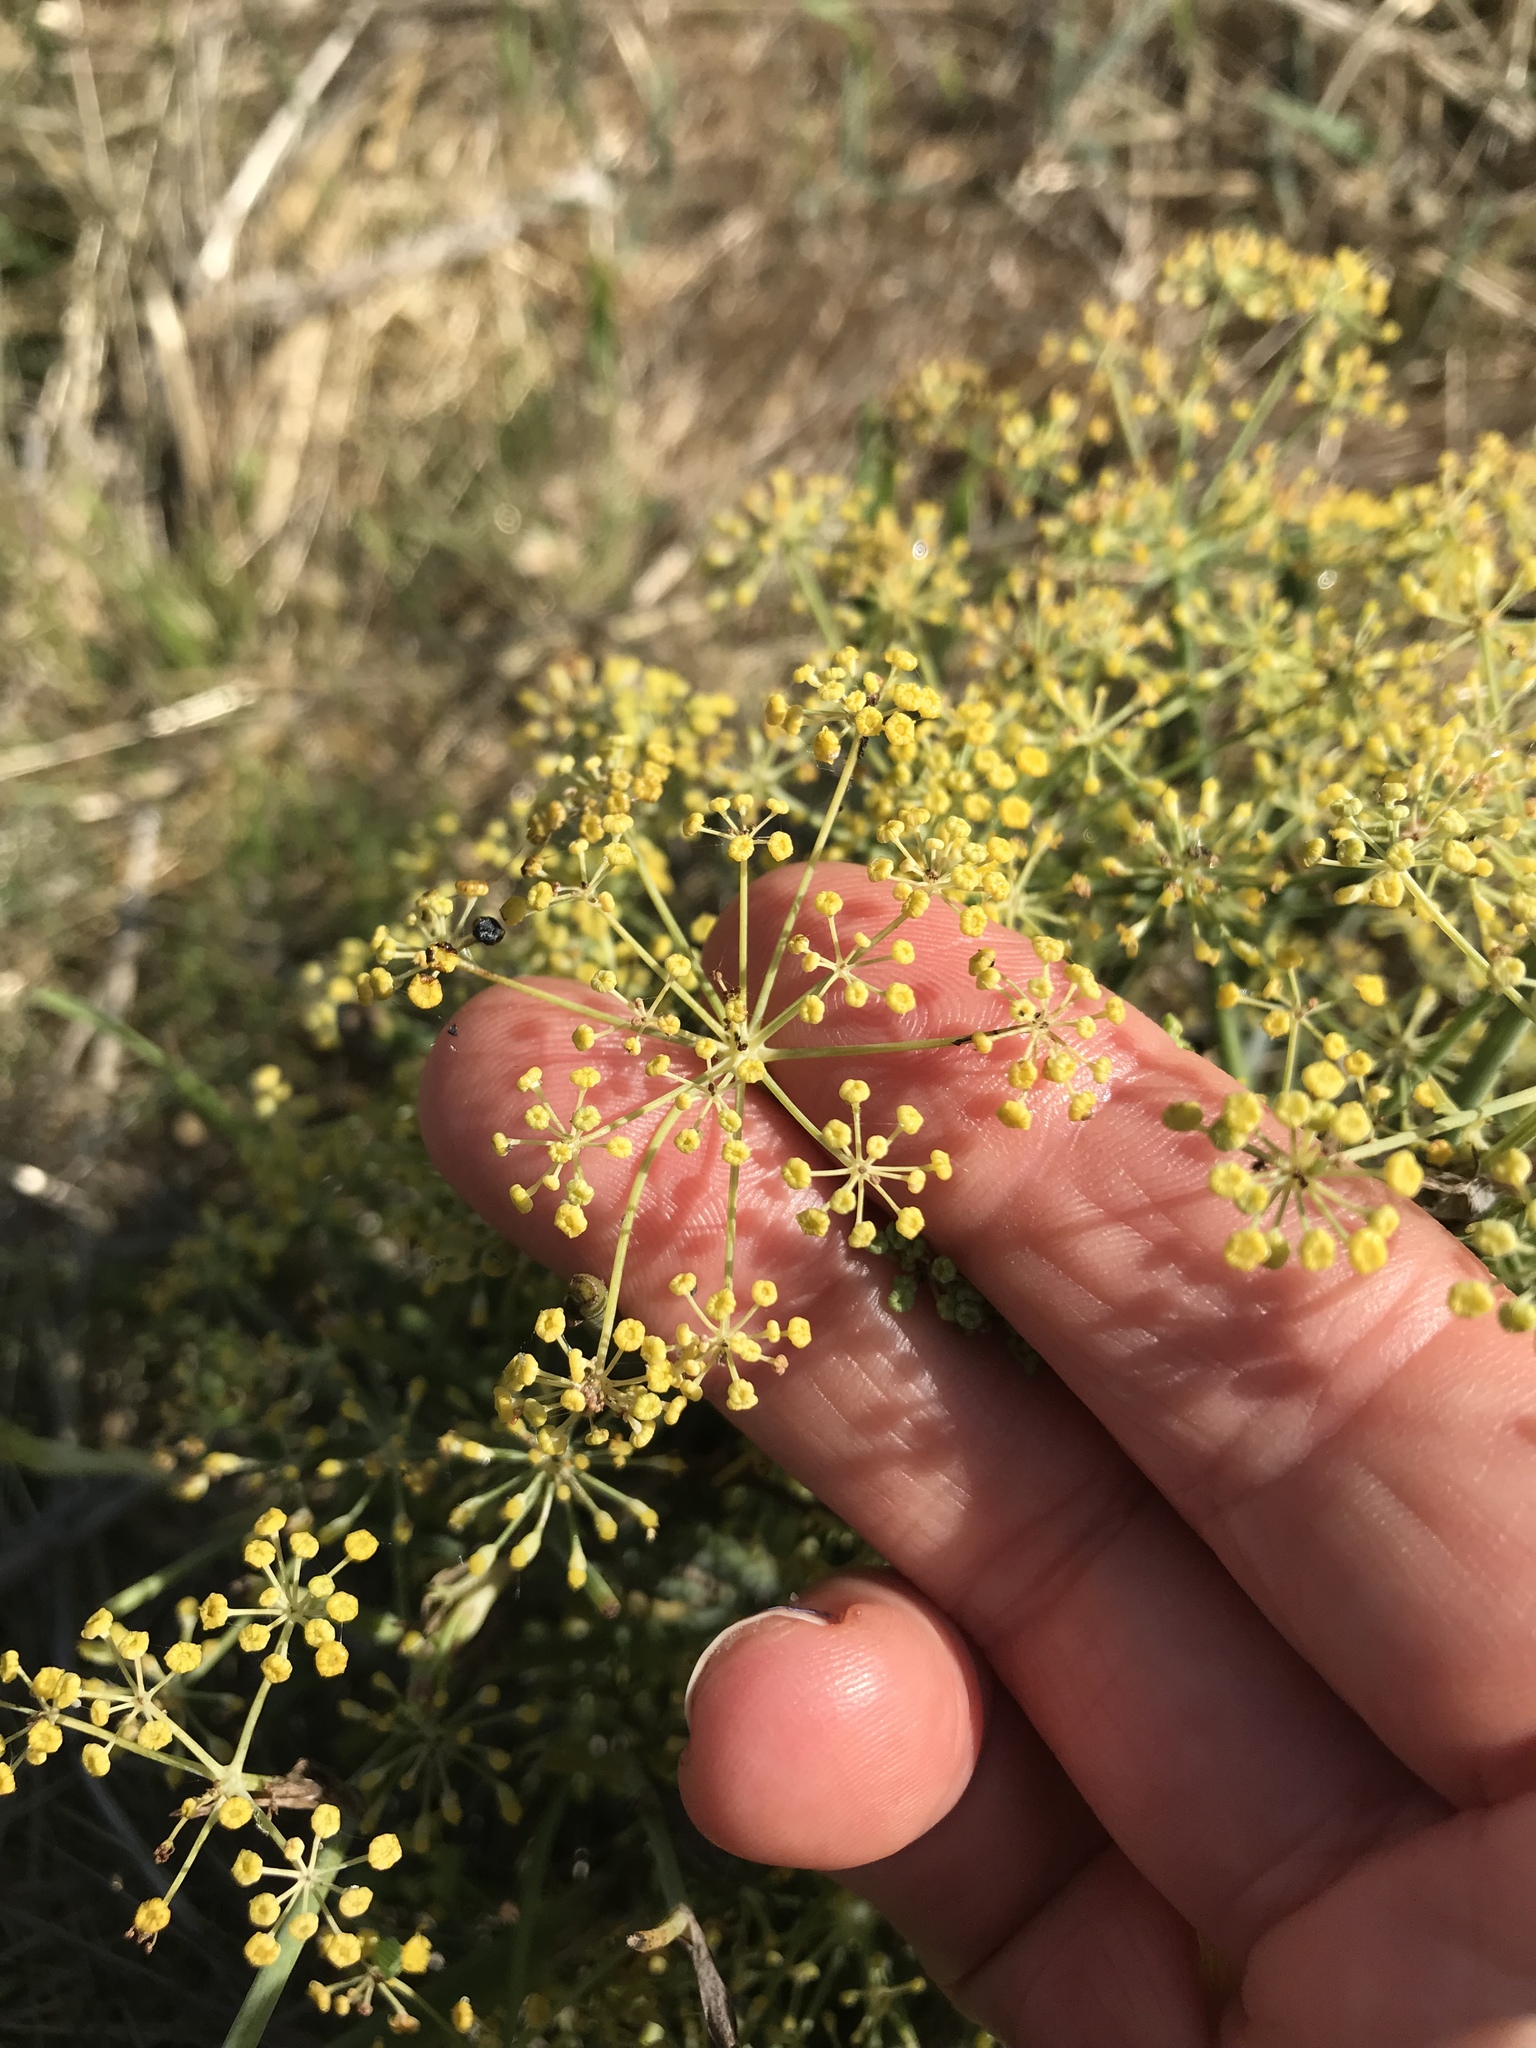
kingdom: Plantae
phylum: Tracheophyta
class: Magnoliopsida
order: Apiales
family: Apiaceae
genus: Foeniculum
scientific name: Foeniculum vulgare
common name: Fennel
